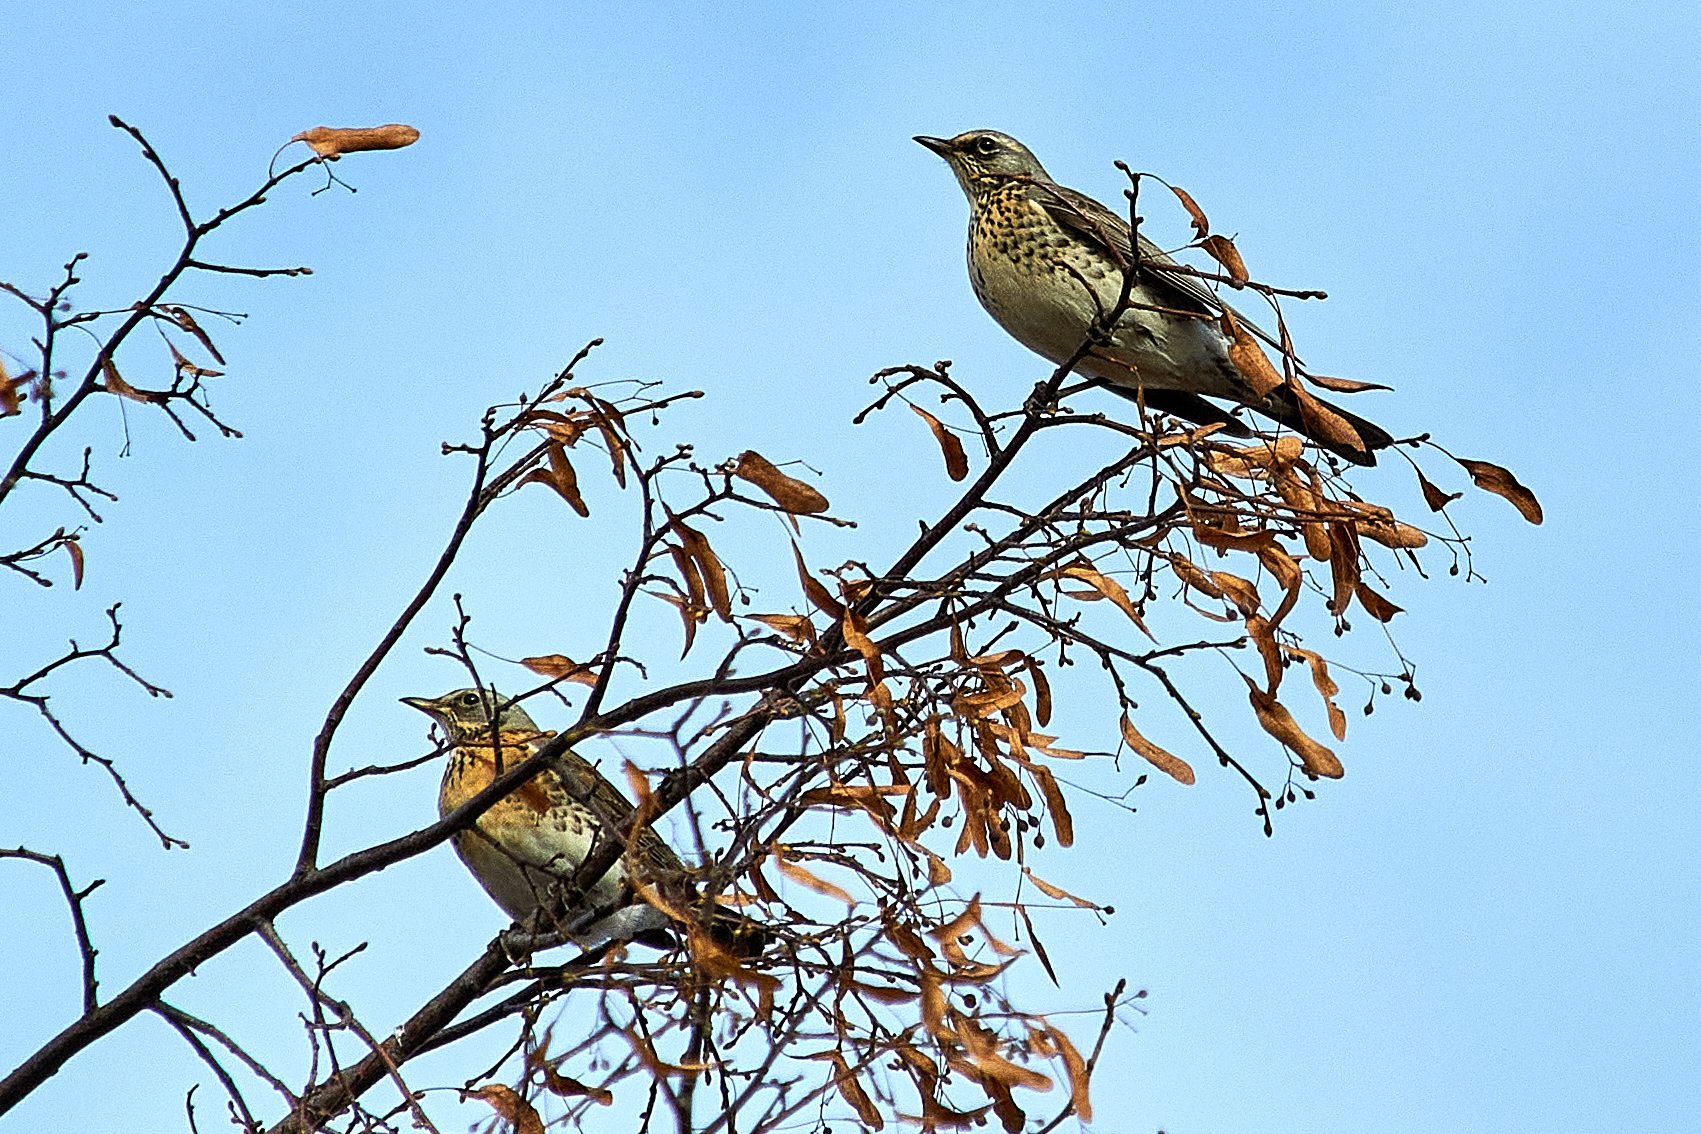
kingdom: Animalia
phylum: Chordata
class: Aves
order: Passeriformes
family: Turdidae
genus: Turdus
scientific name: Turdus pilaris
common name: Fieldfare
